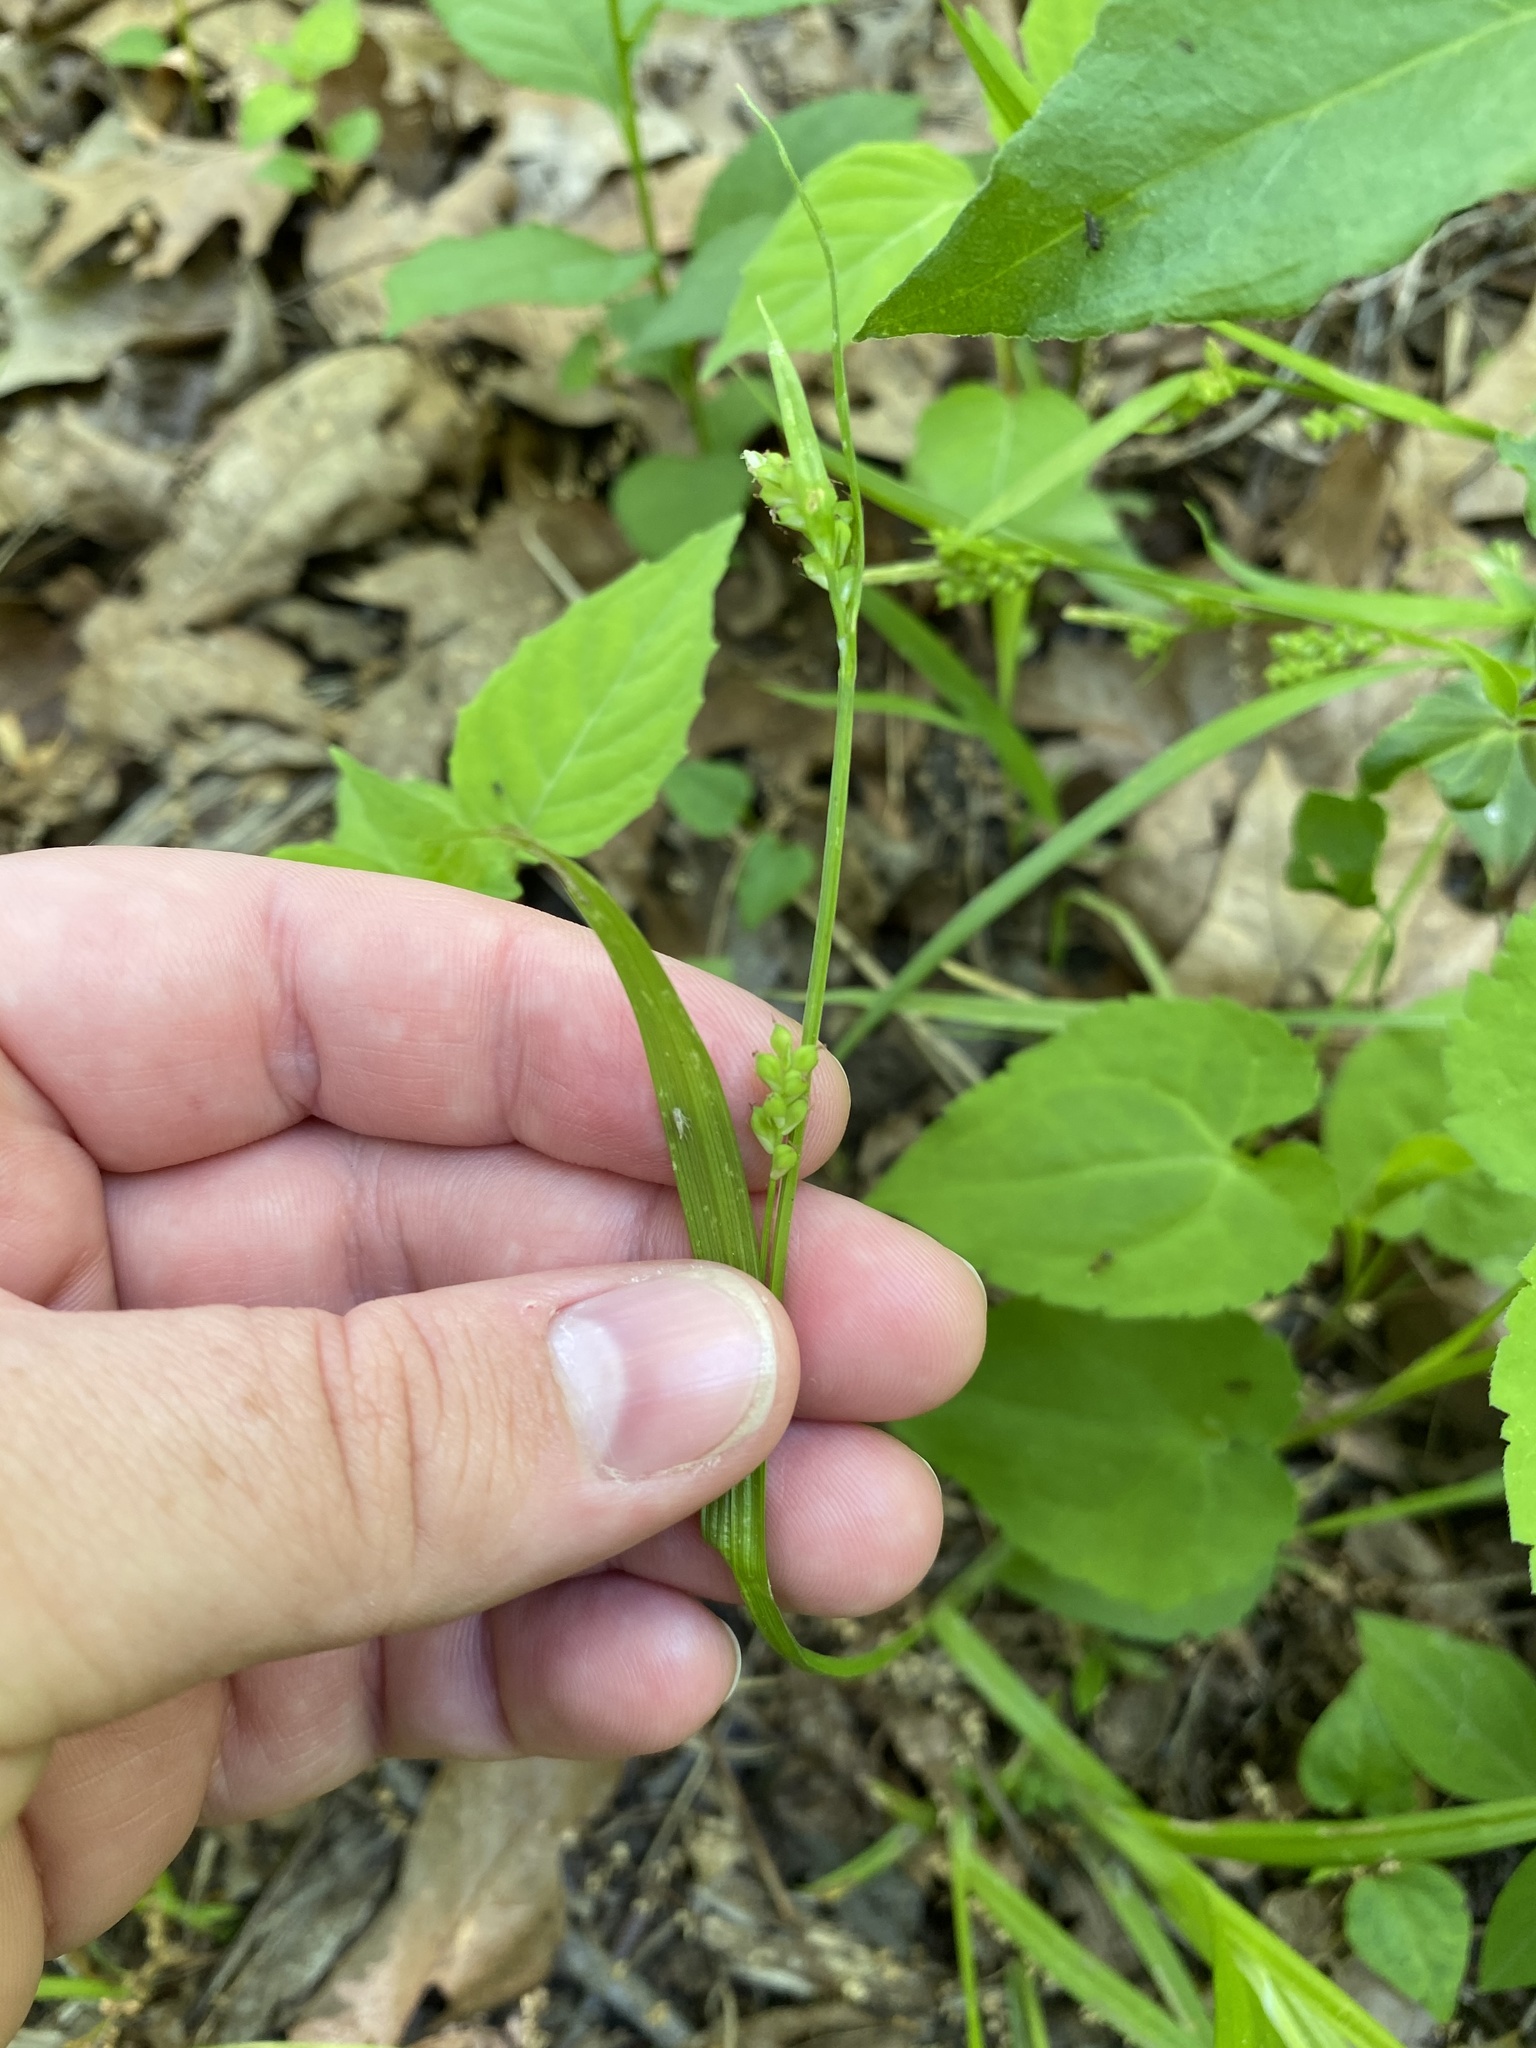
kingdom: Plantae
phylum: Tracheophyta
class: Liliopsida
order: Poales
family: Cyperaceae
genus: Carex
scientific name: Carex blanda
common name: Bland sedge
